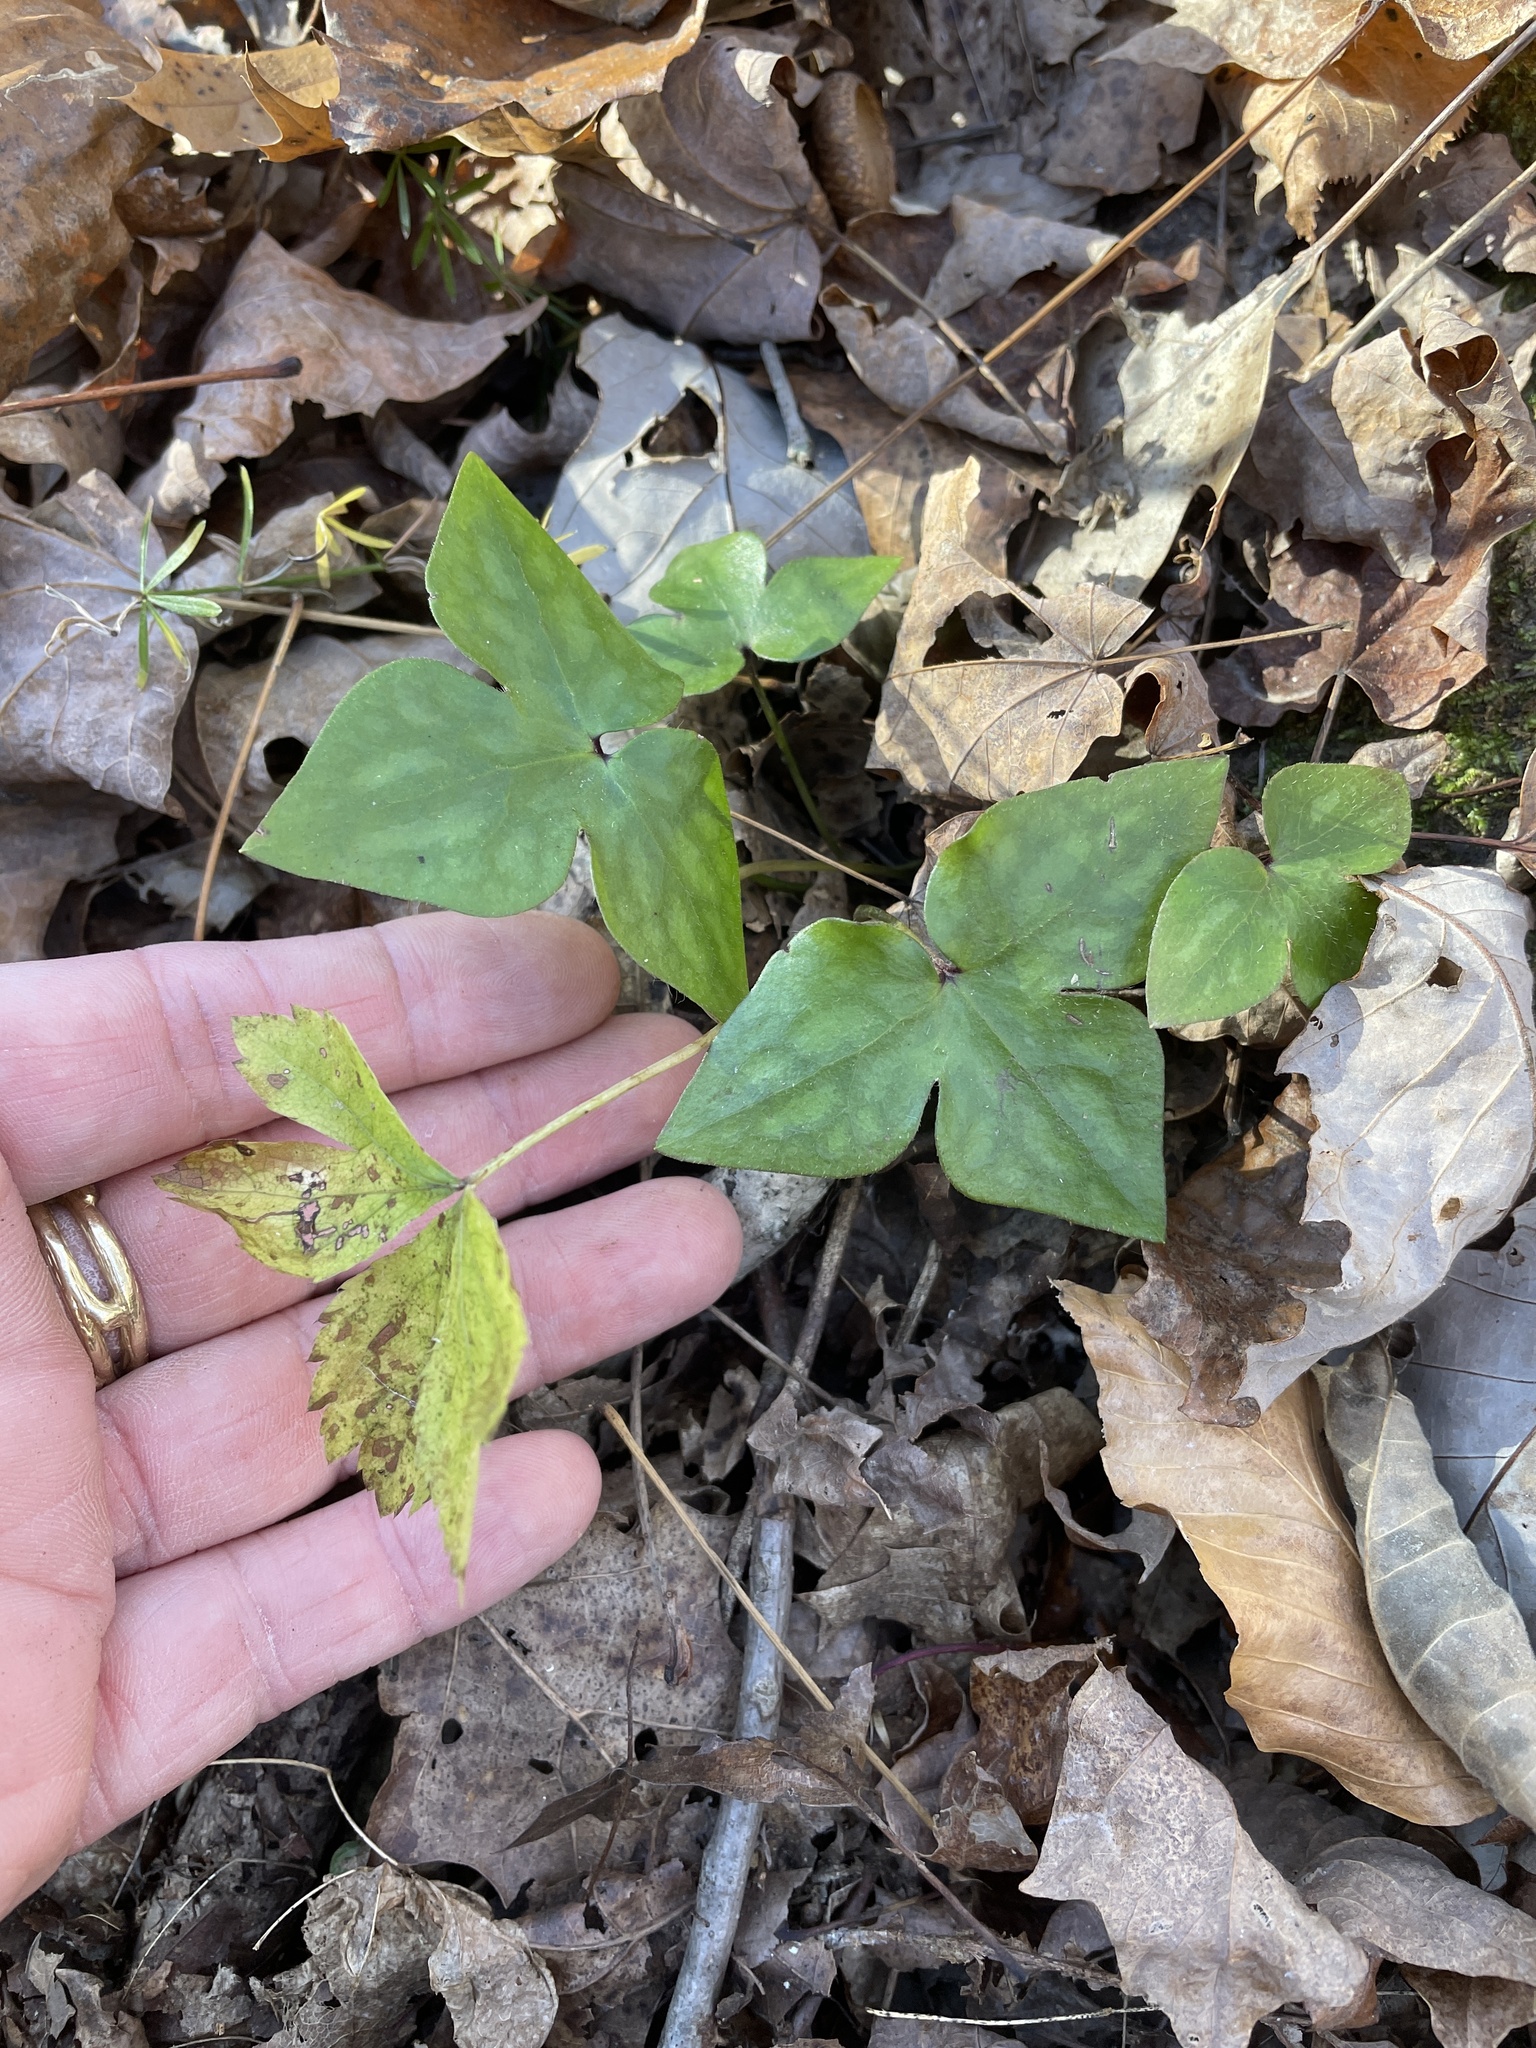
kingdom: Plantae
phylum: Tracheophyta
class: Magnoliopsida
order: Ranunculales
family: Ranunculaceae
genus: Hepatica
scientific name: Hepatica acutiloba
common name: Sharp-lobed hepatica
